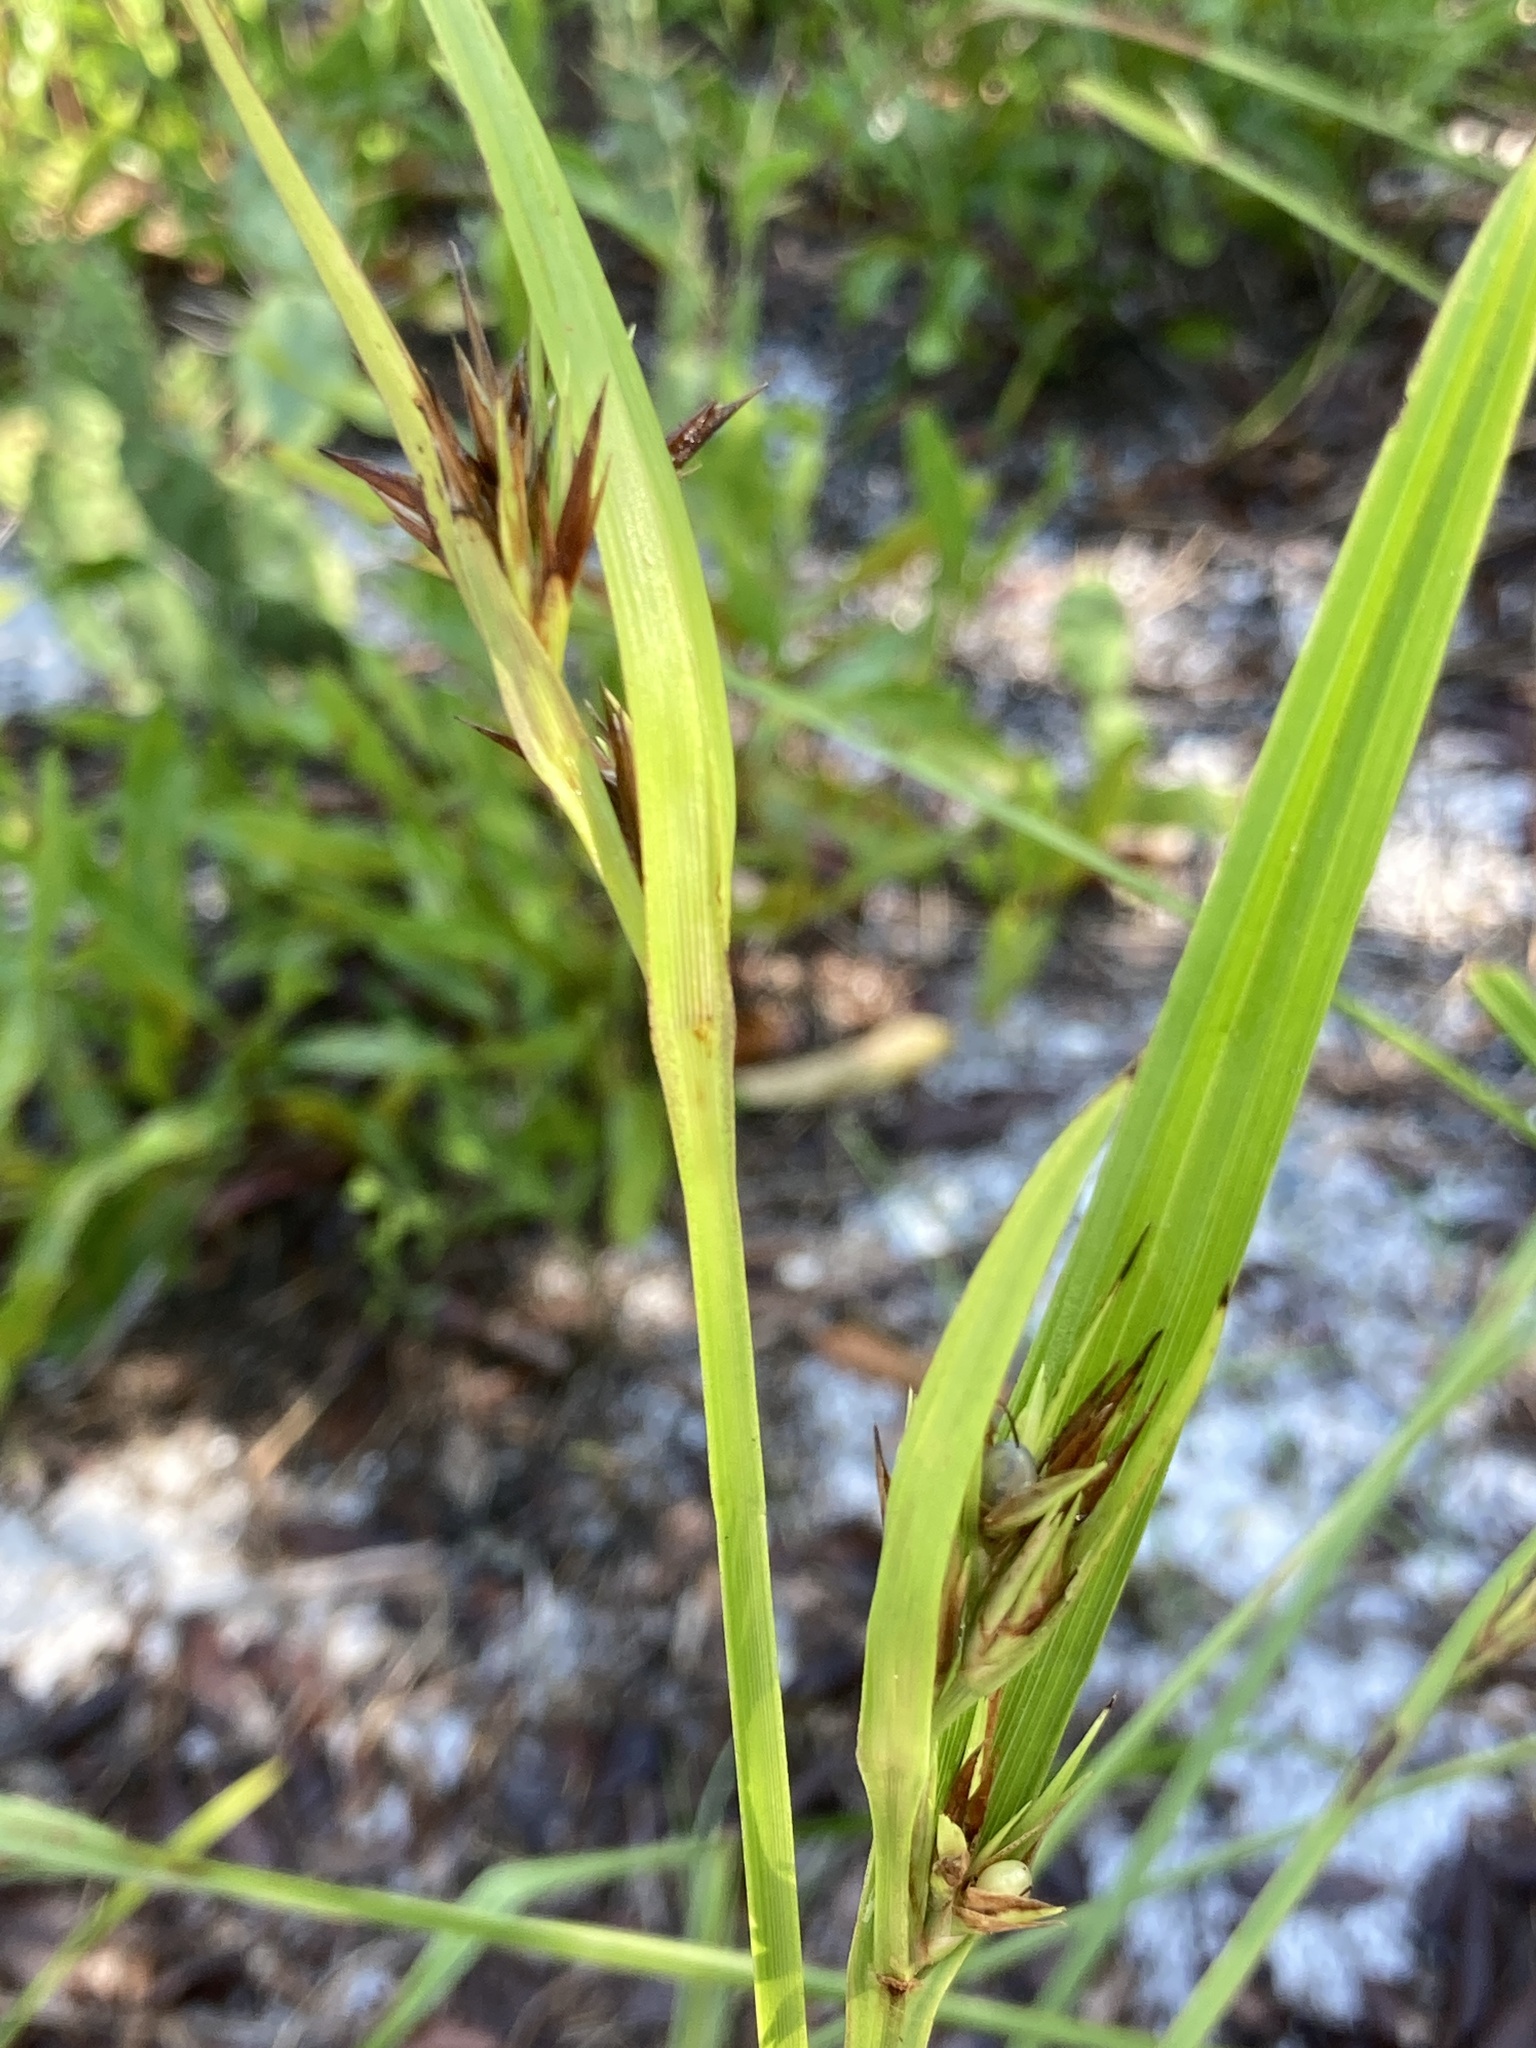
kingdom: Plantae
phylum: Tracheophyta
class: Liliopsida
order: Poales
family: Cyperaceae
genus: Scleria
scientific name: Scleria triglomerata
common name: Whip nutrush
